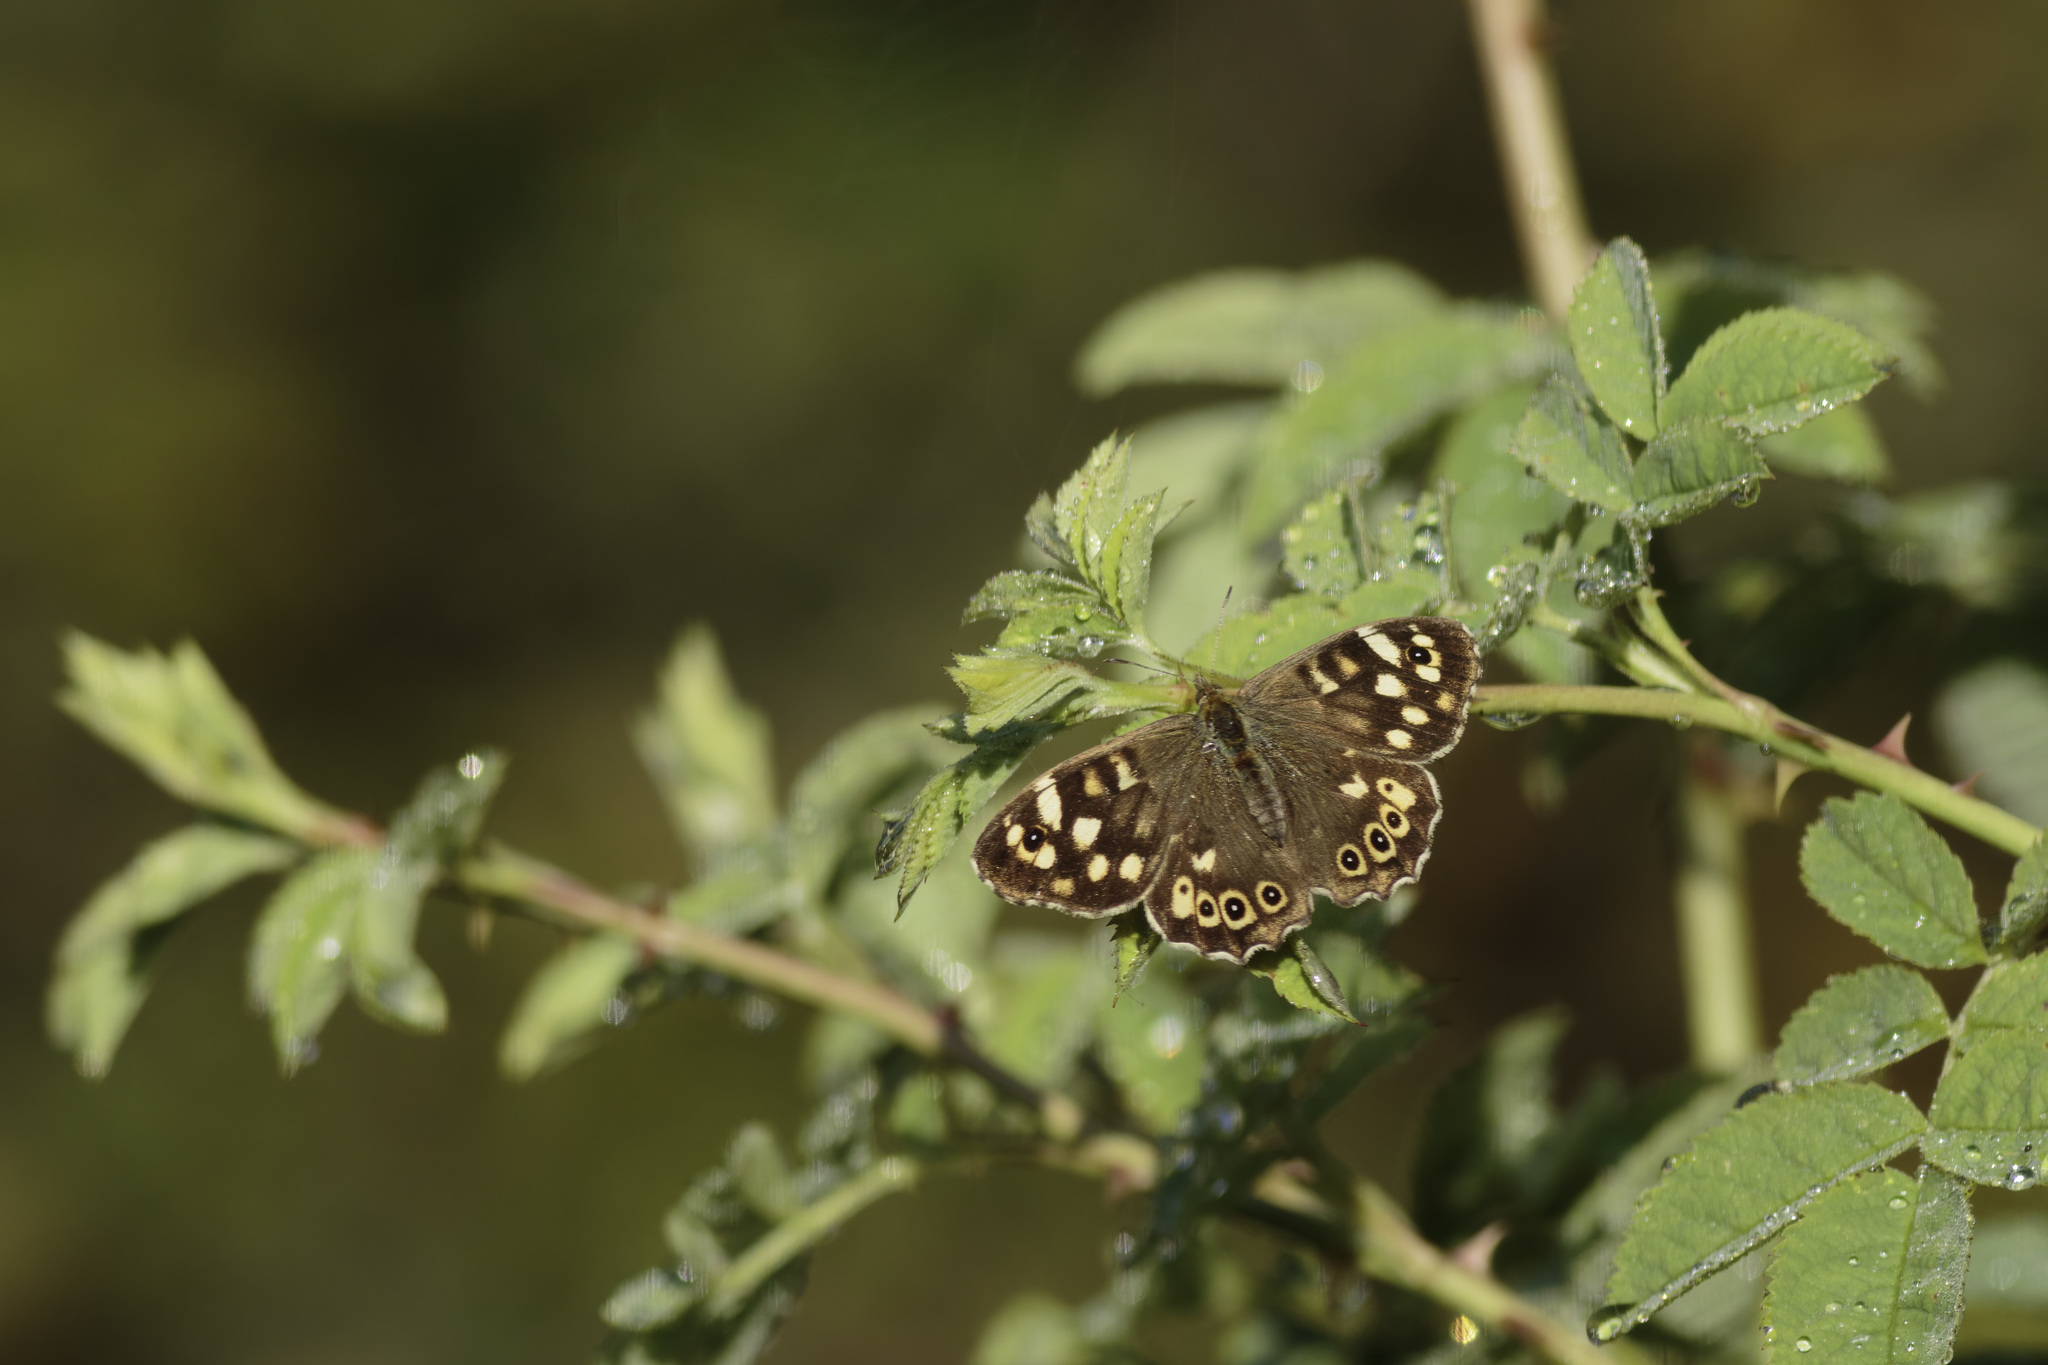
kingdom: Animalia
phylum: Arthropoda
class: Insecta
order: Lepidoptera
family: Nymphalidae
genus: Pararge
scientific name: Pararge aegeria
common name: Speckled wood
